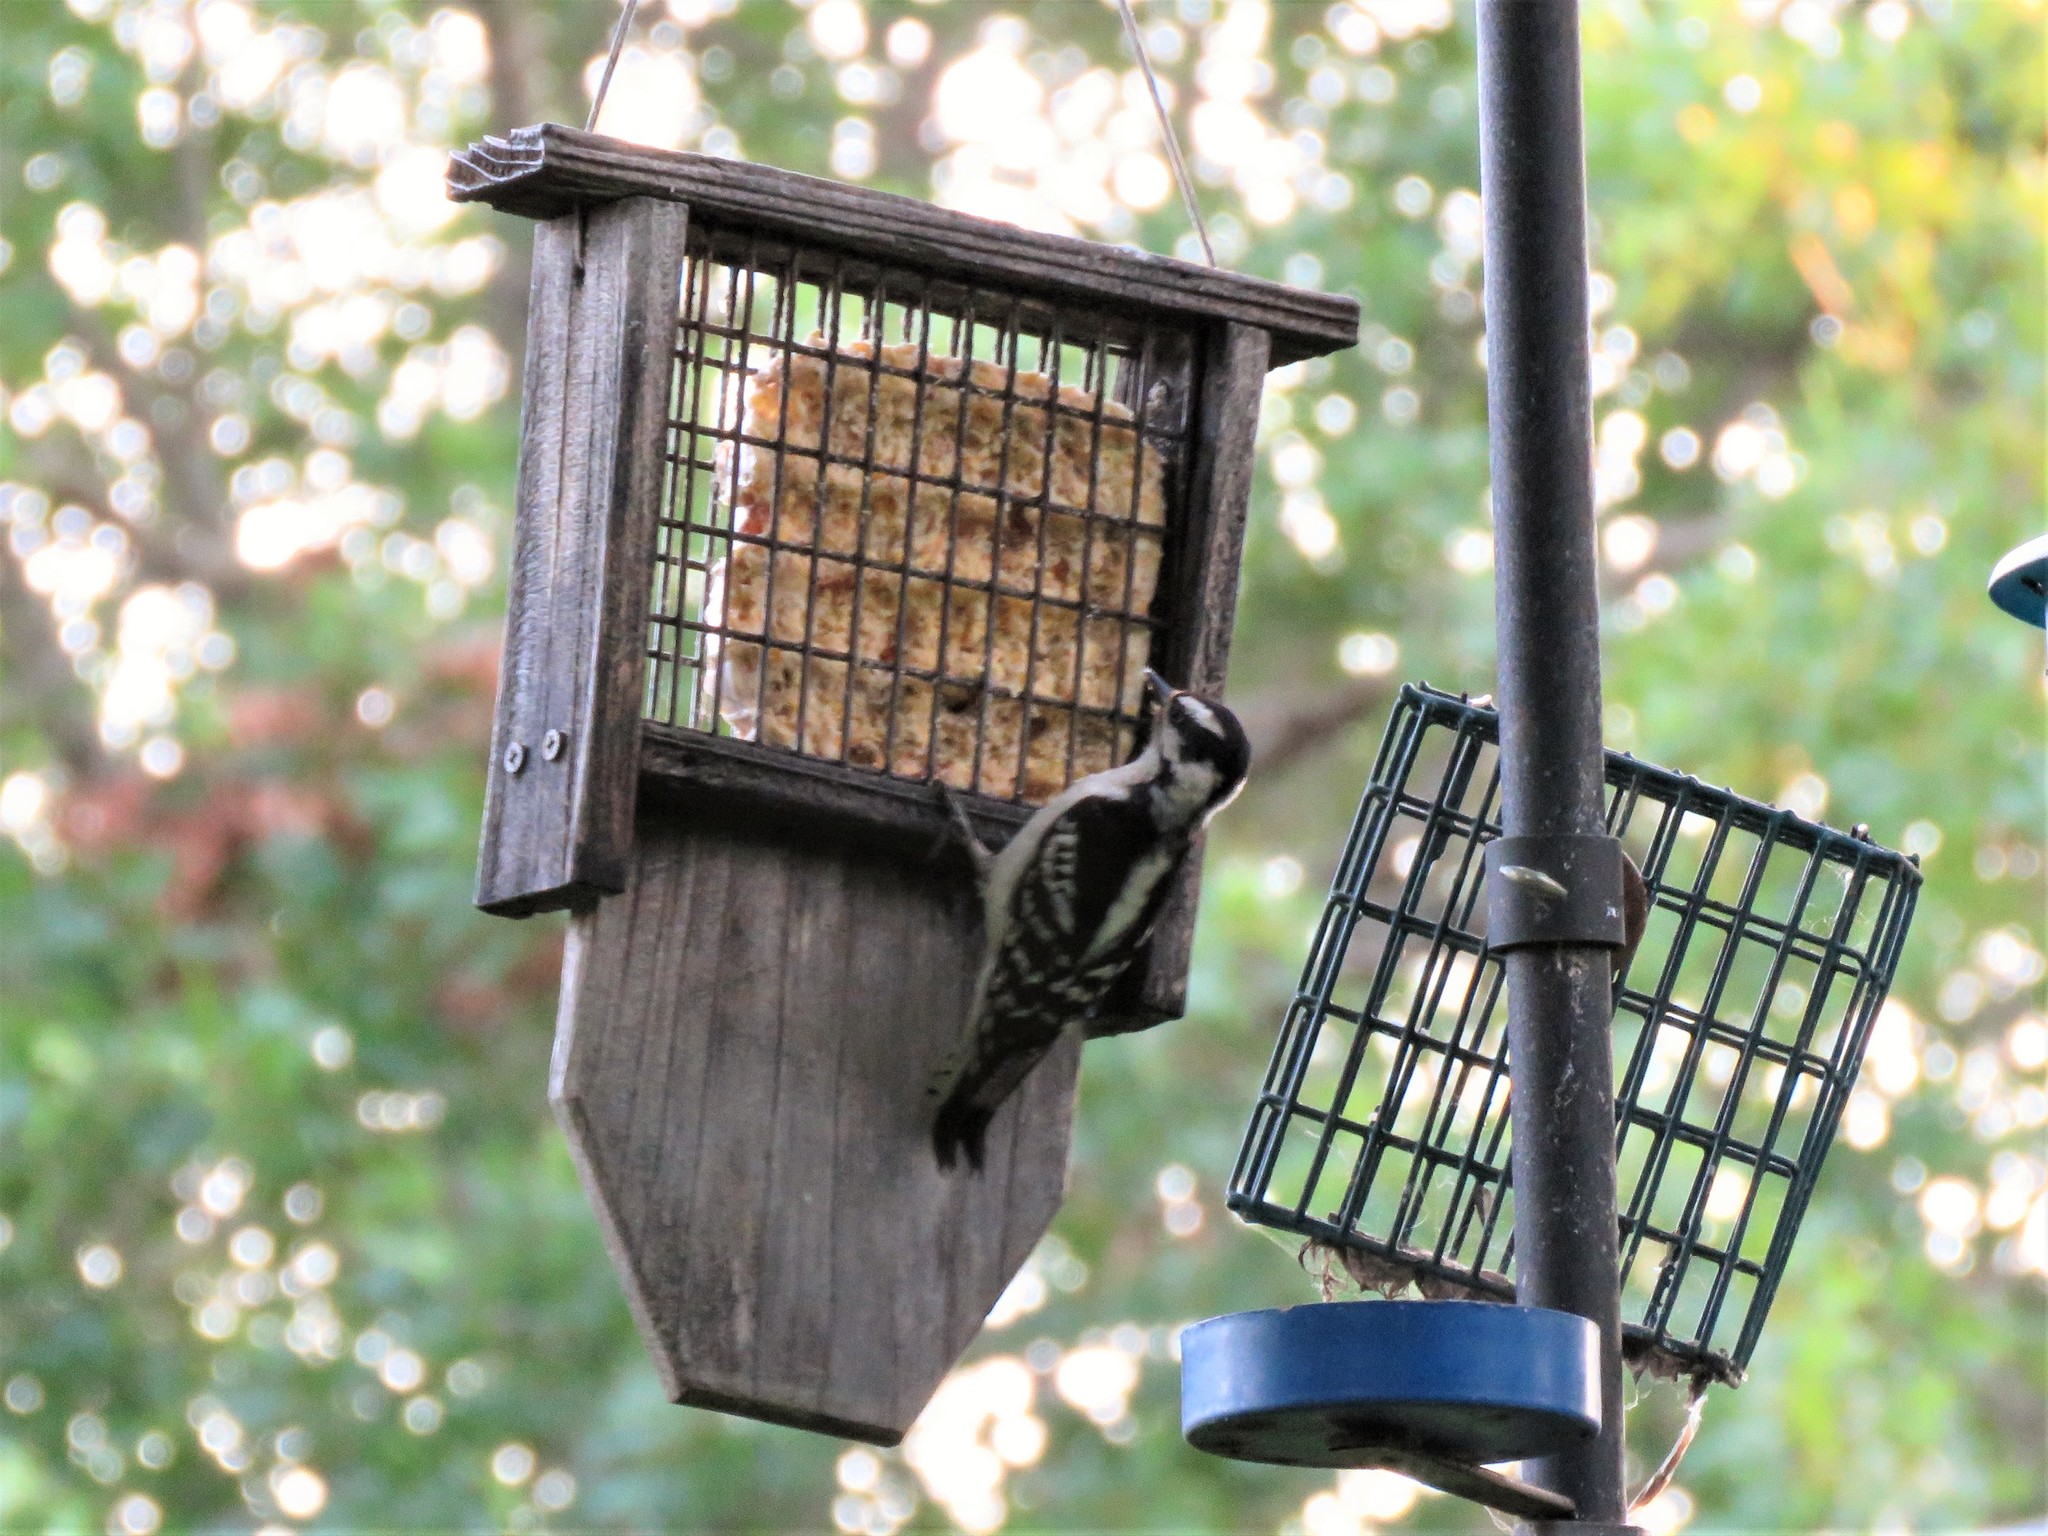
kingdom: Animalia
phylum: Chordata
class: Aves
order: Piciformes
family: Picidae
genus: Dryobates
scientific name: Dryobates pubescens
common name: Downy woodpecker
